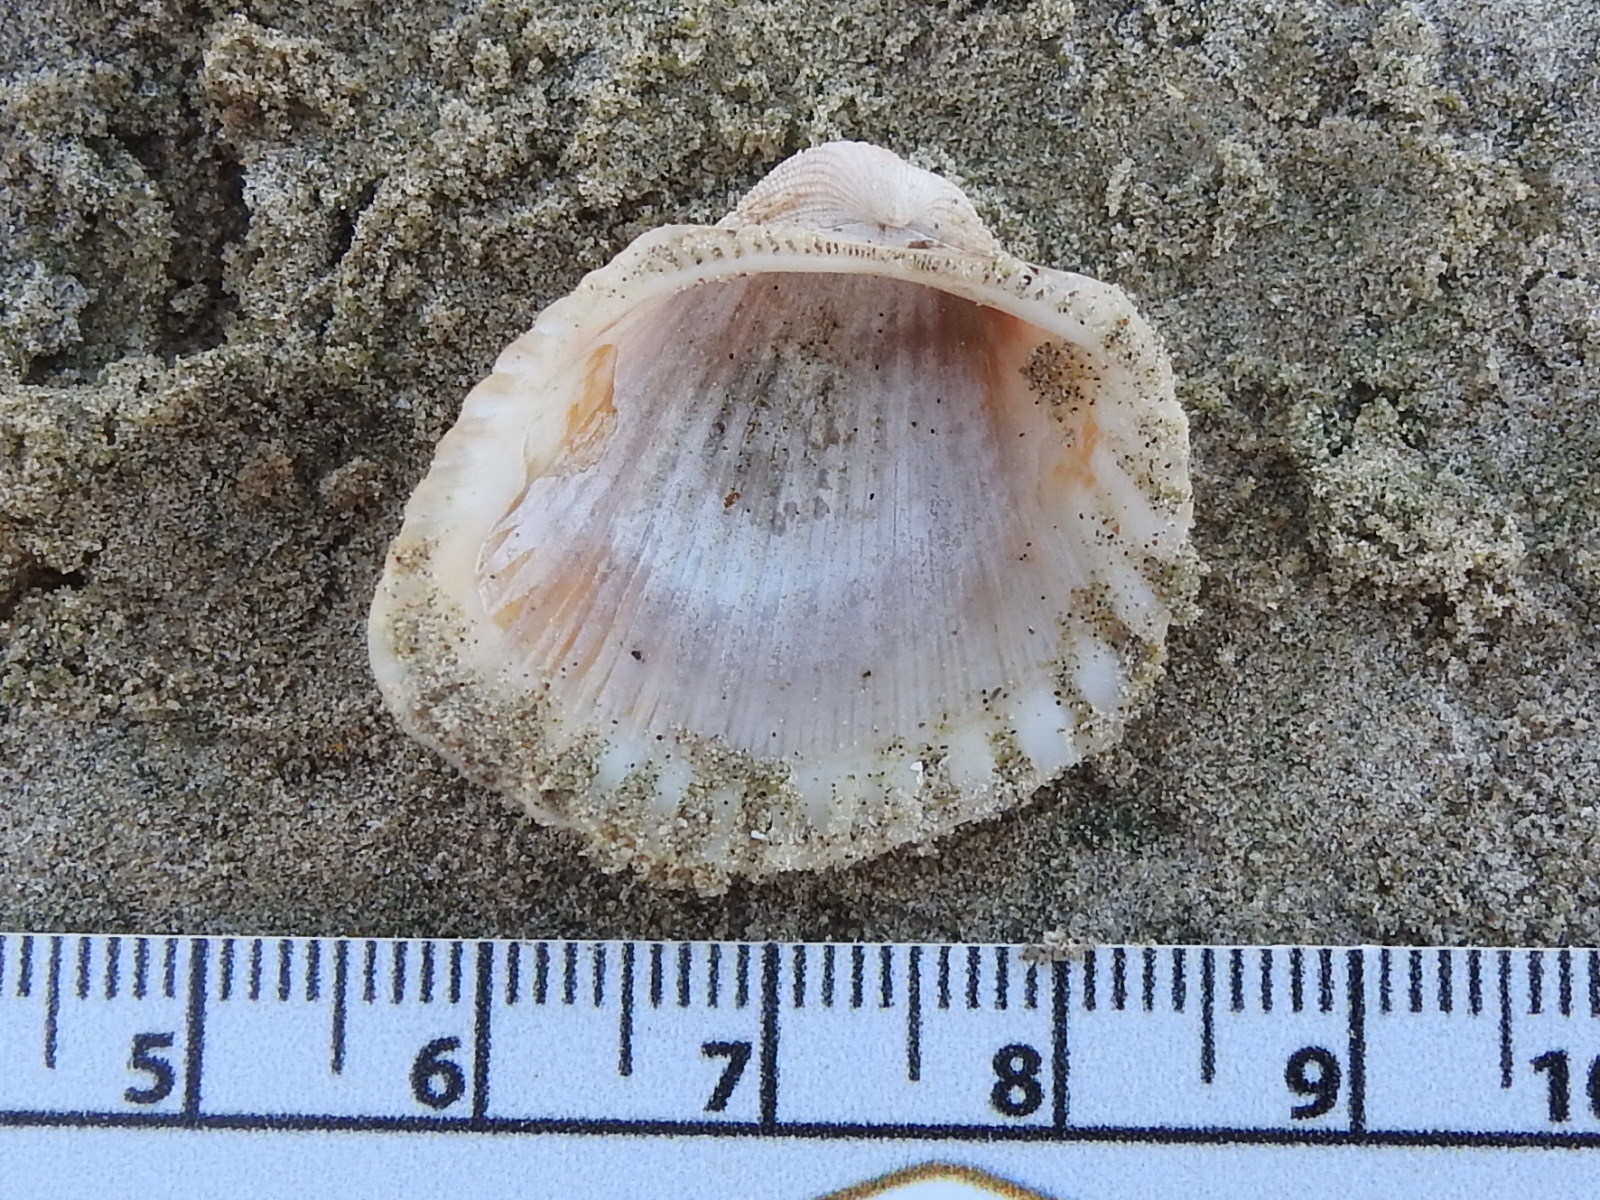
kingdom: Animalia
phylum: Mollusca
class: Bivalvia
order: Arcida
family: Arcidae
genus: Anadara
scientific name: Anadara brasiliana
